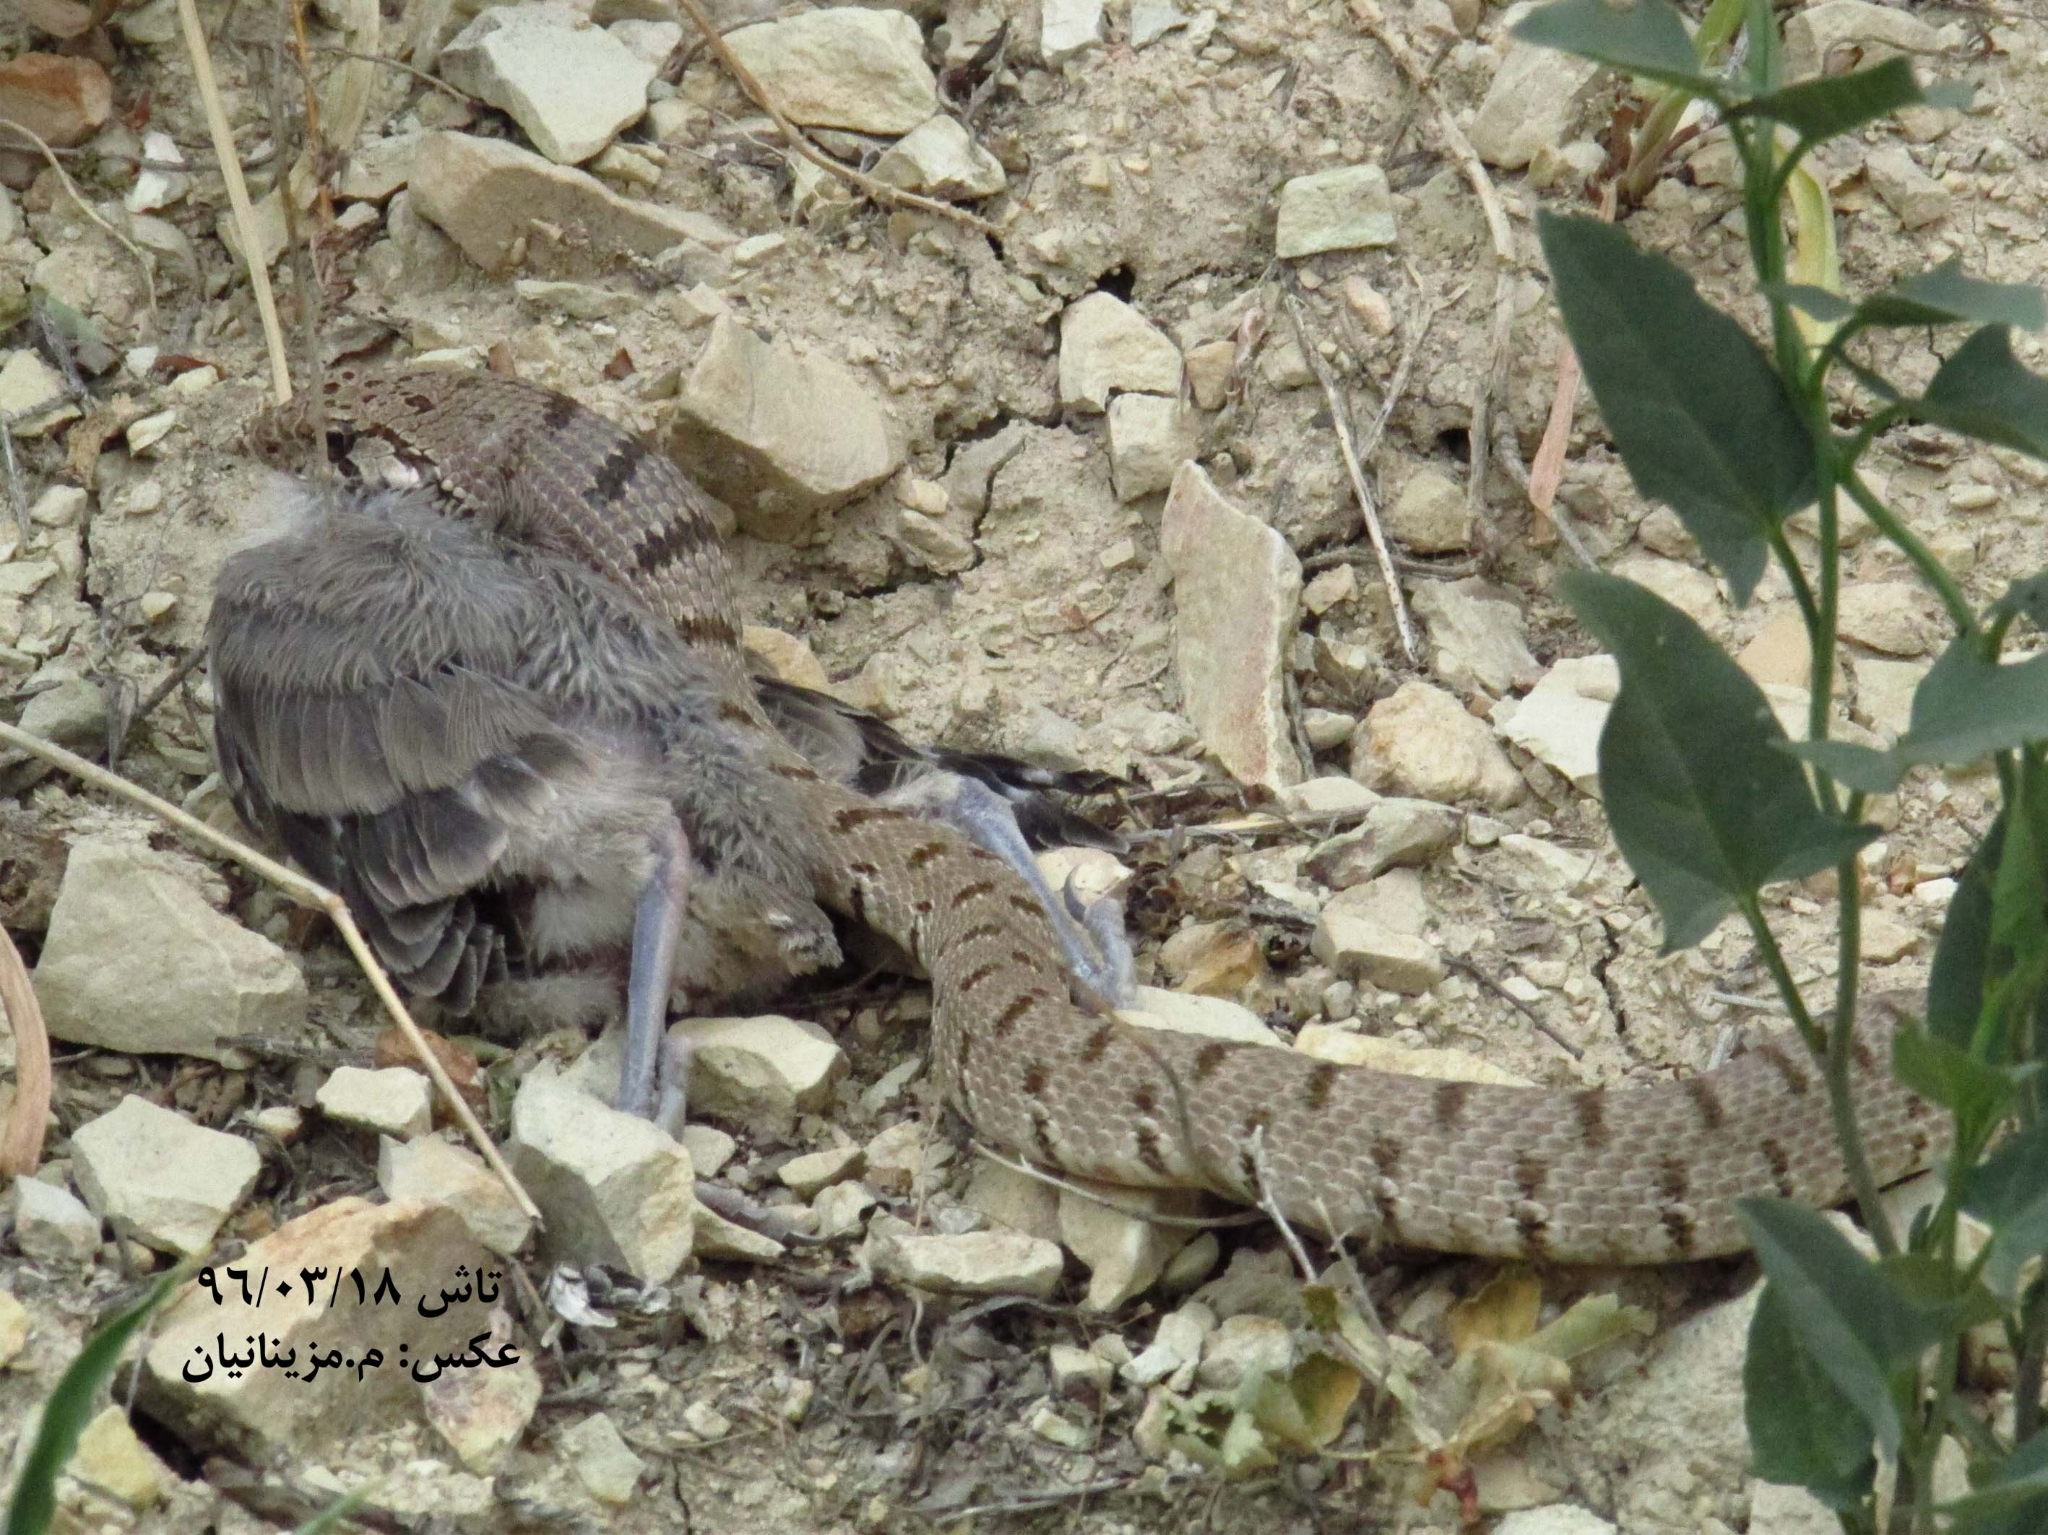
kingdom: Animalia
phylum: Chordata
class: Squamata
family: Colubridae
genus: Hemorrhois
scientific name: Hemorrhois ravergieri
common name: Spotted whip snake
